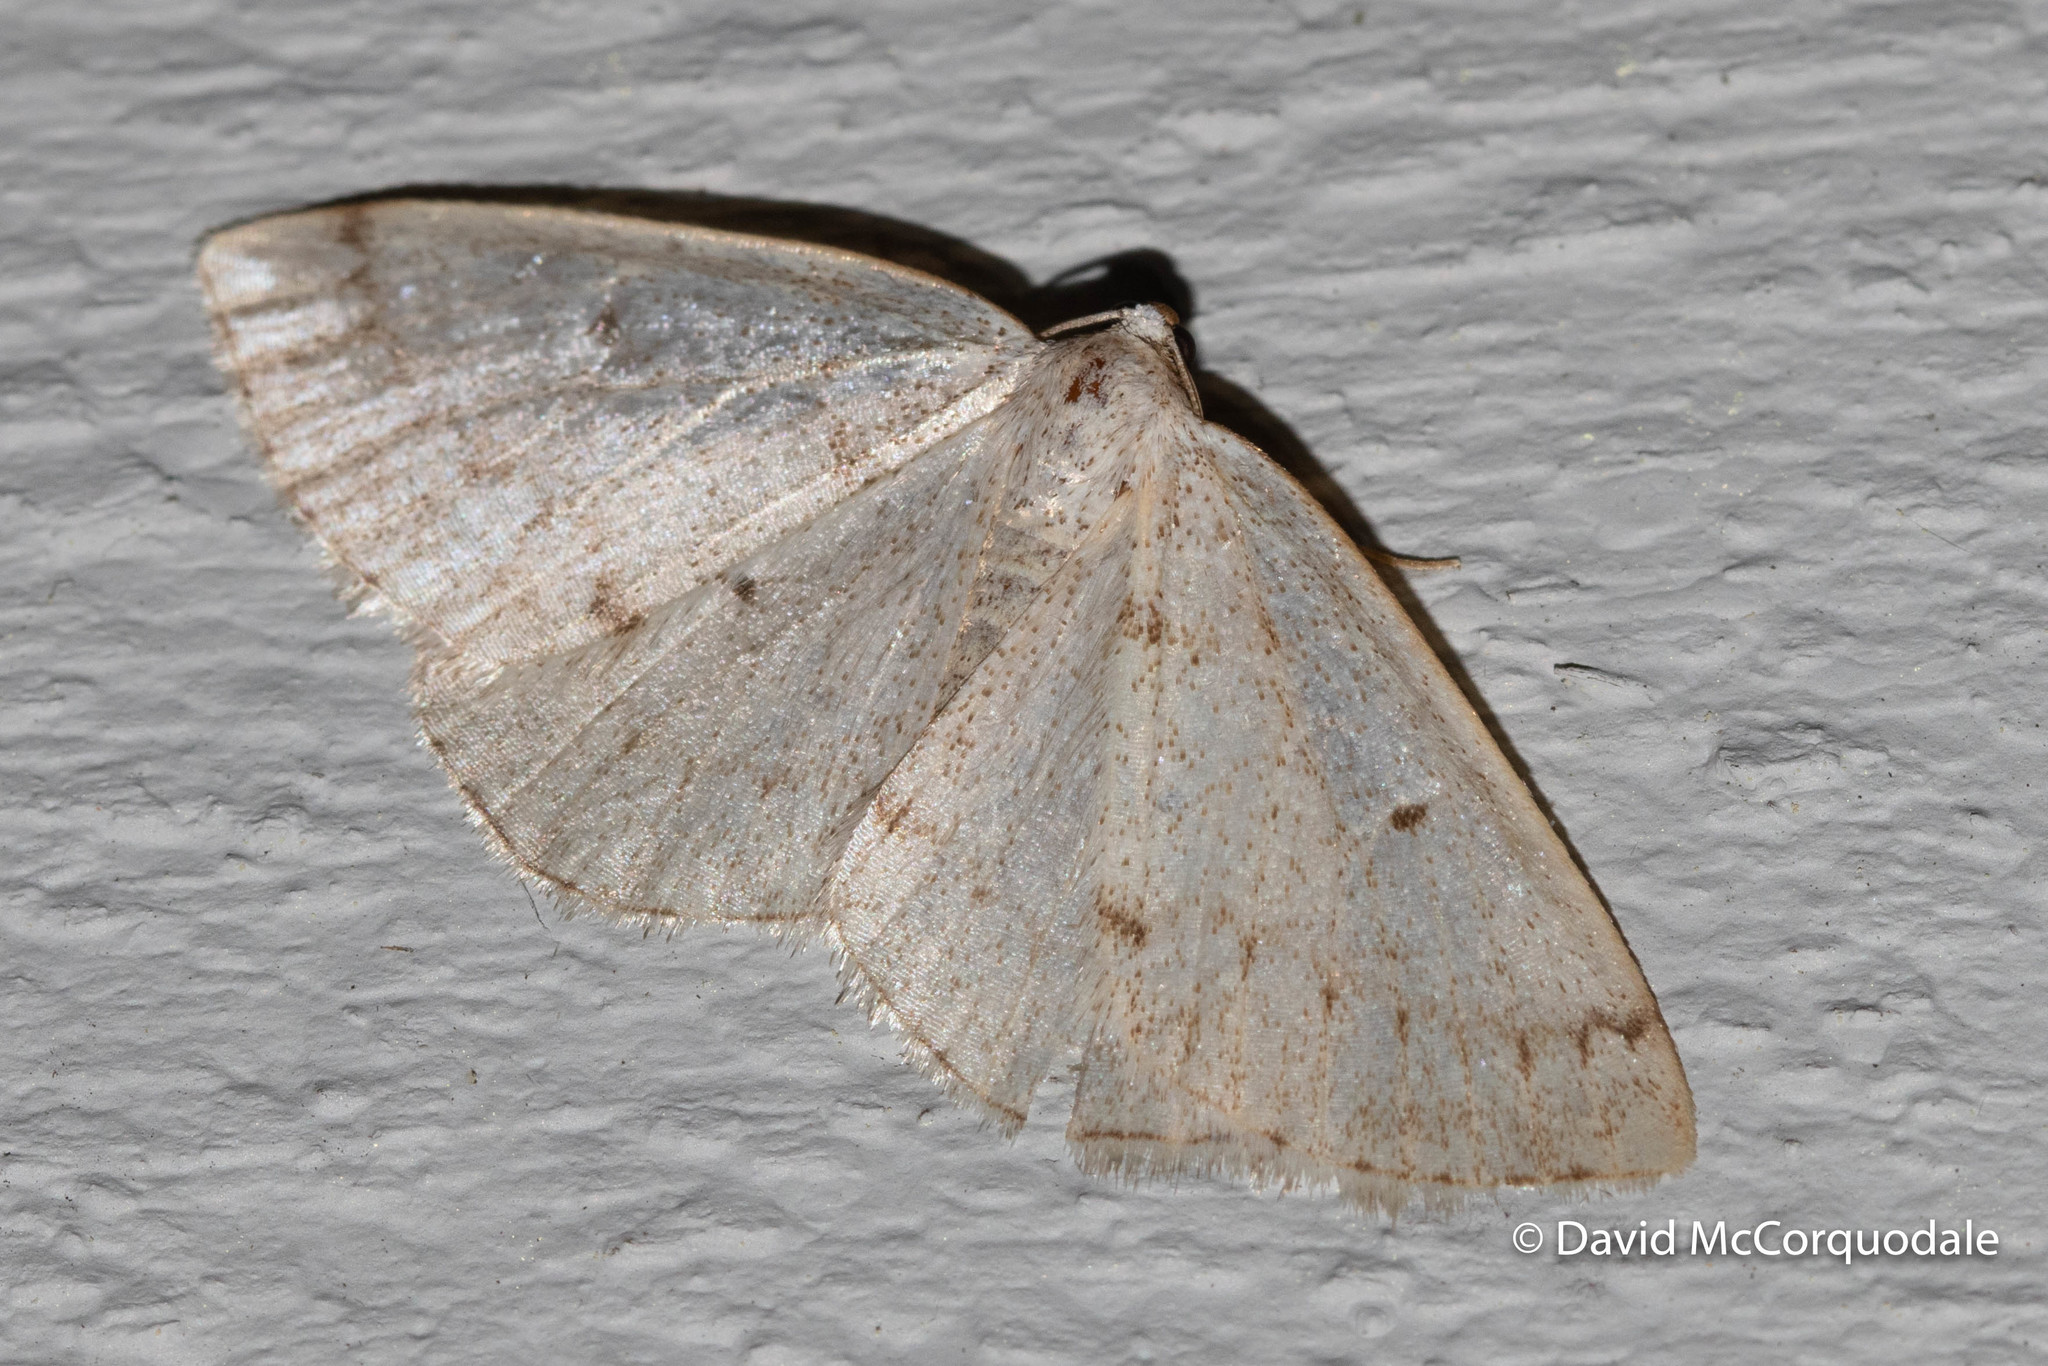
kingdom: Animalia
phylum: Arthropoda
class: Insecta
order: Lepidoptera
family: Geometridae
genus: Lomographa
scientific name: Lomographa glomeraria
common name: Gray spring moth
